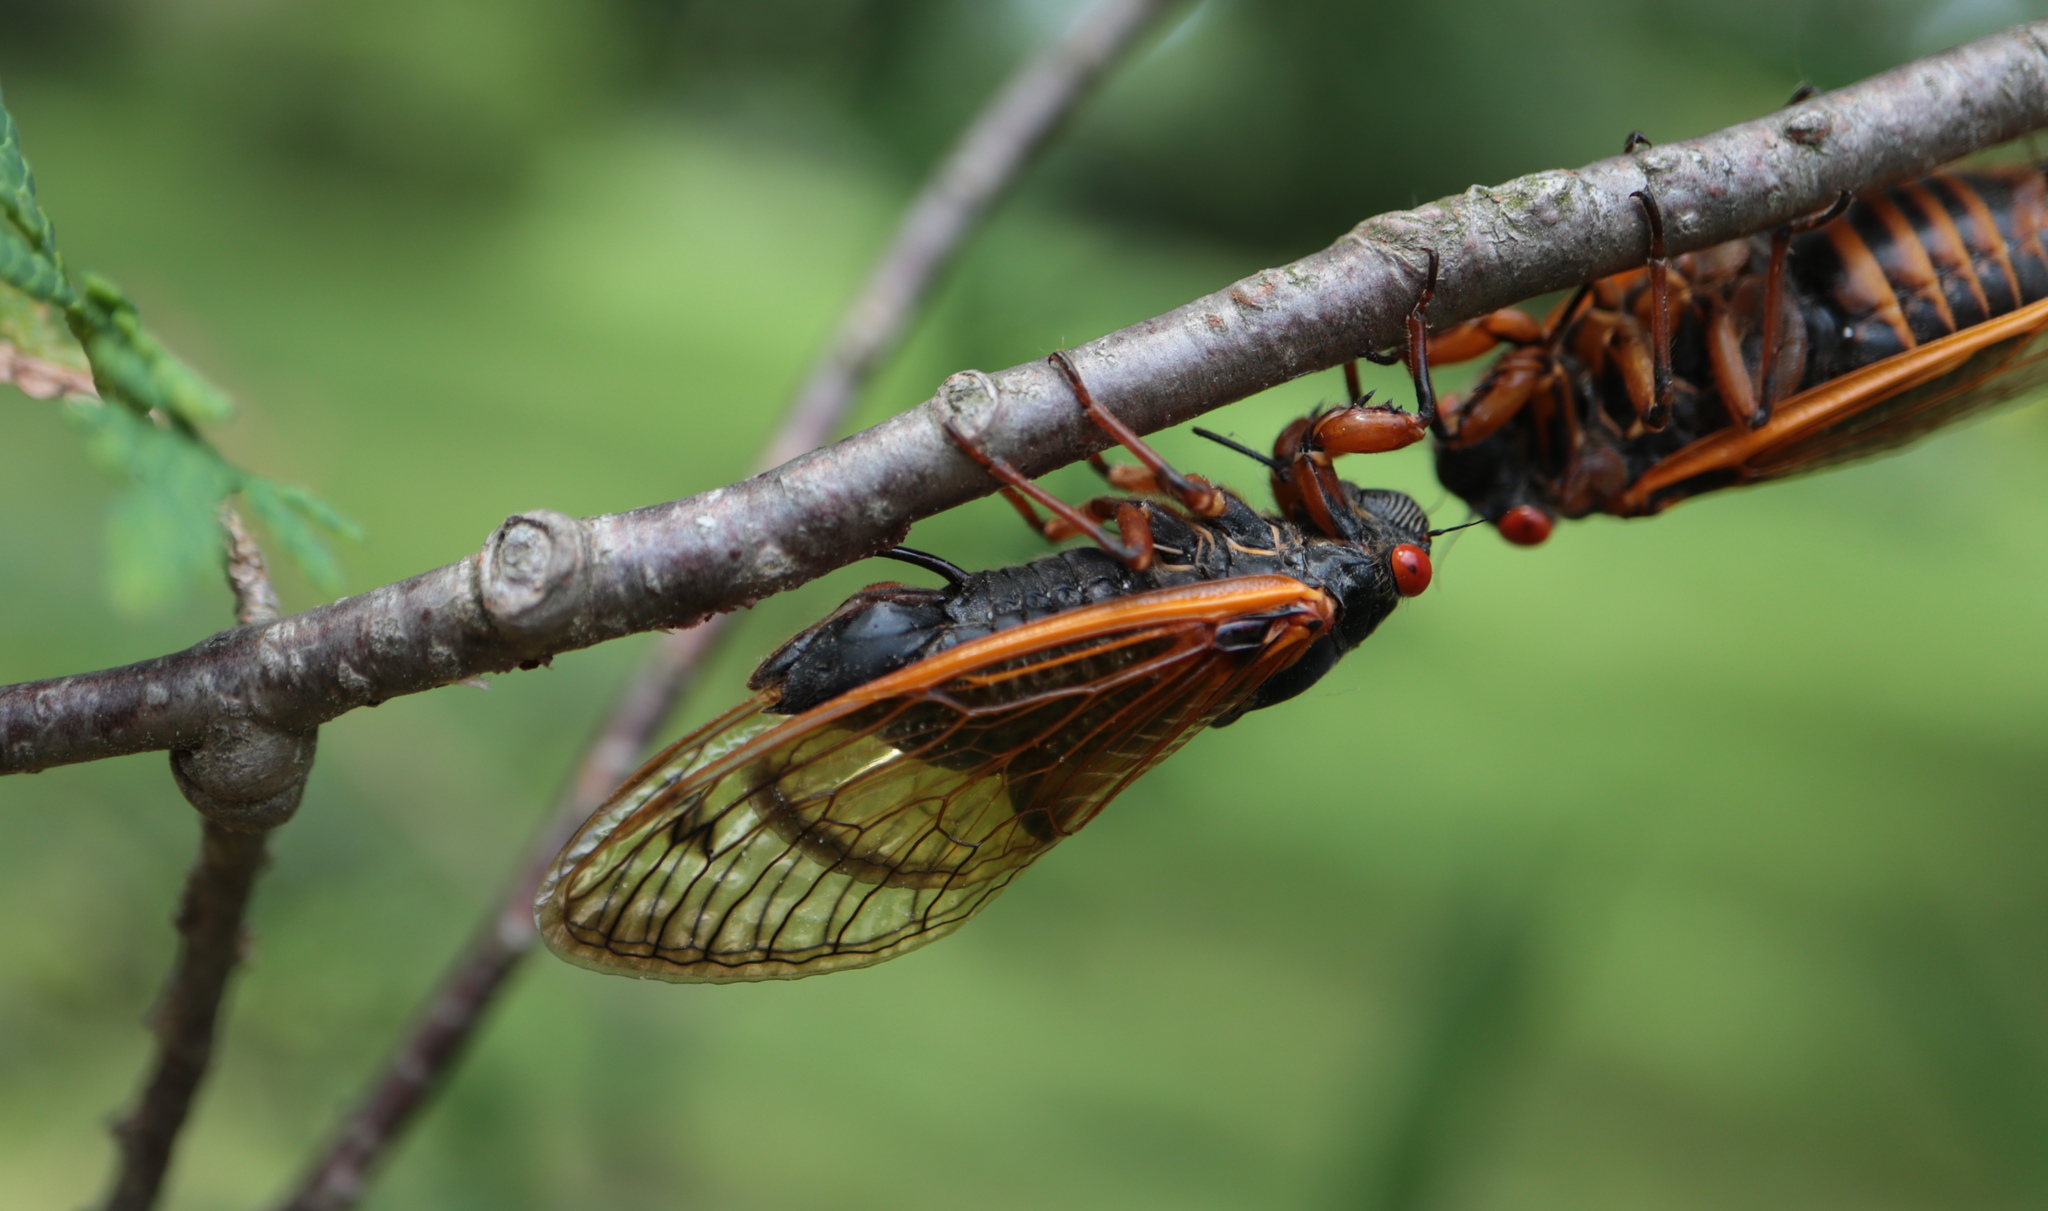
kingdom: Animalia
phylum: Arthropoda
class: Insecta
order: Hemiptera
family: Cicadidae
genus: Magicicada
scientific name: Magicicada cassini
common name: Cassin's 17-year cicada
